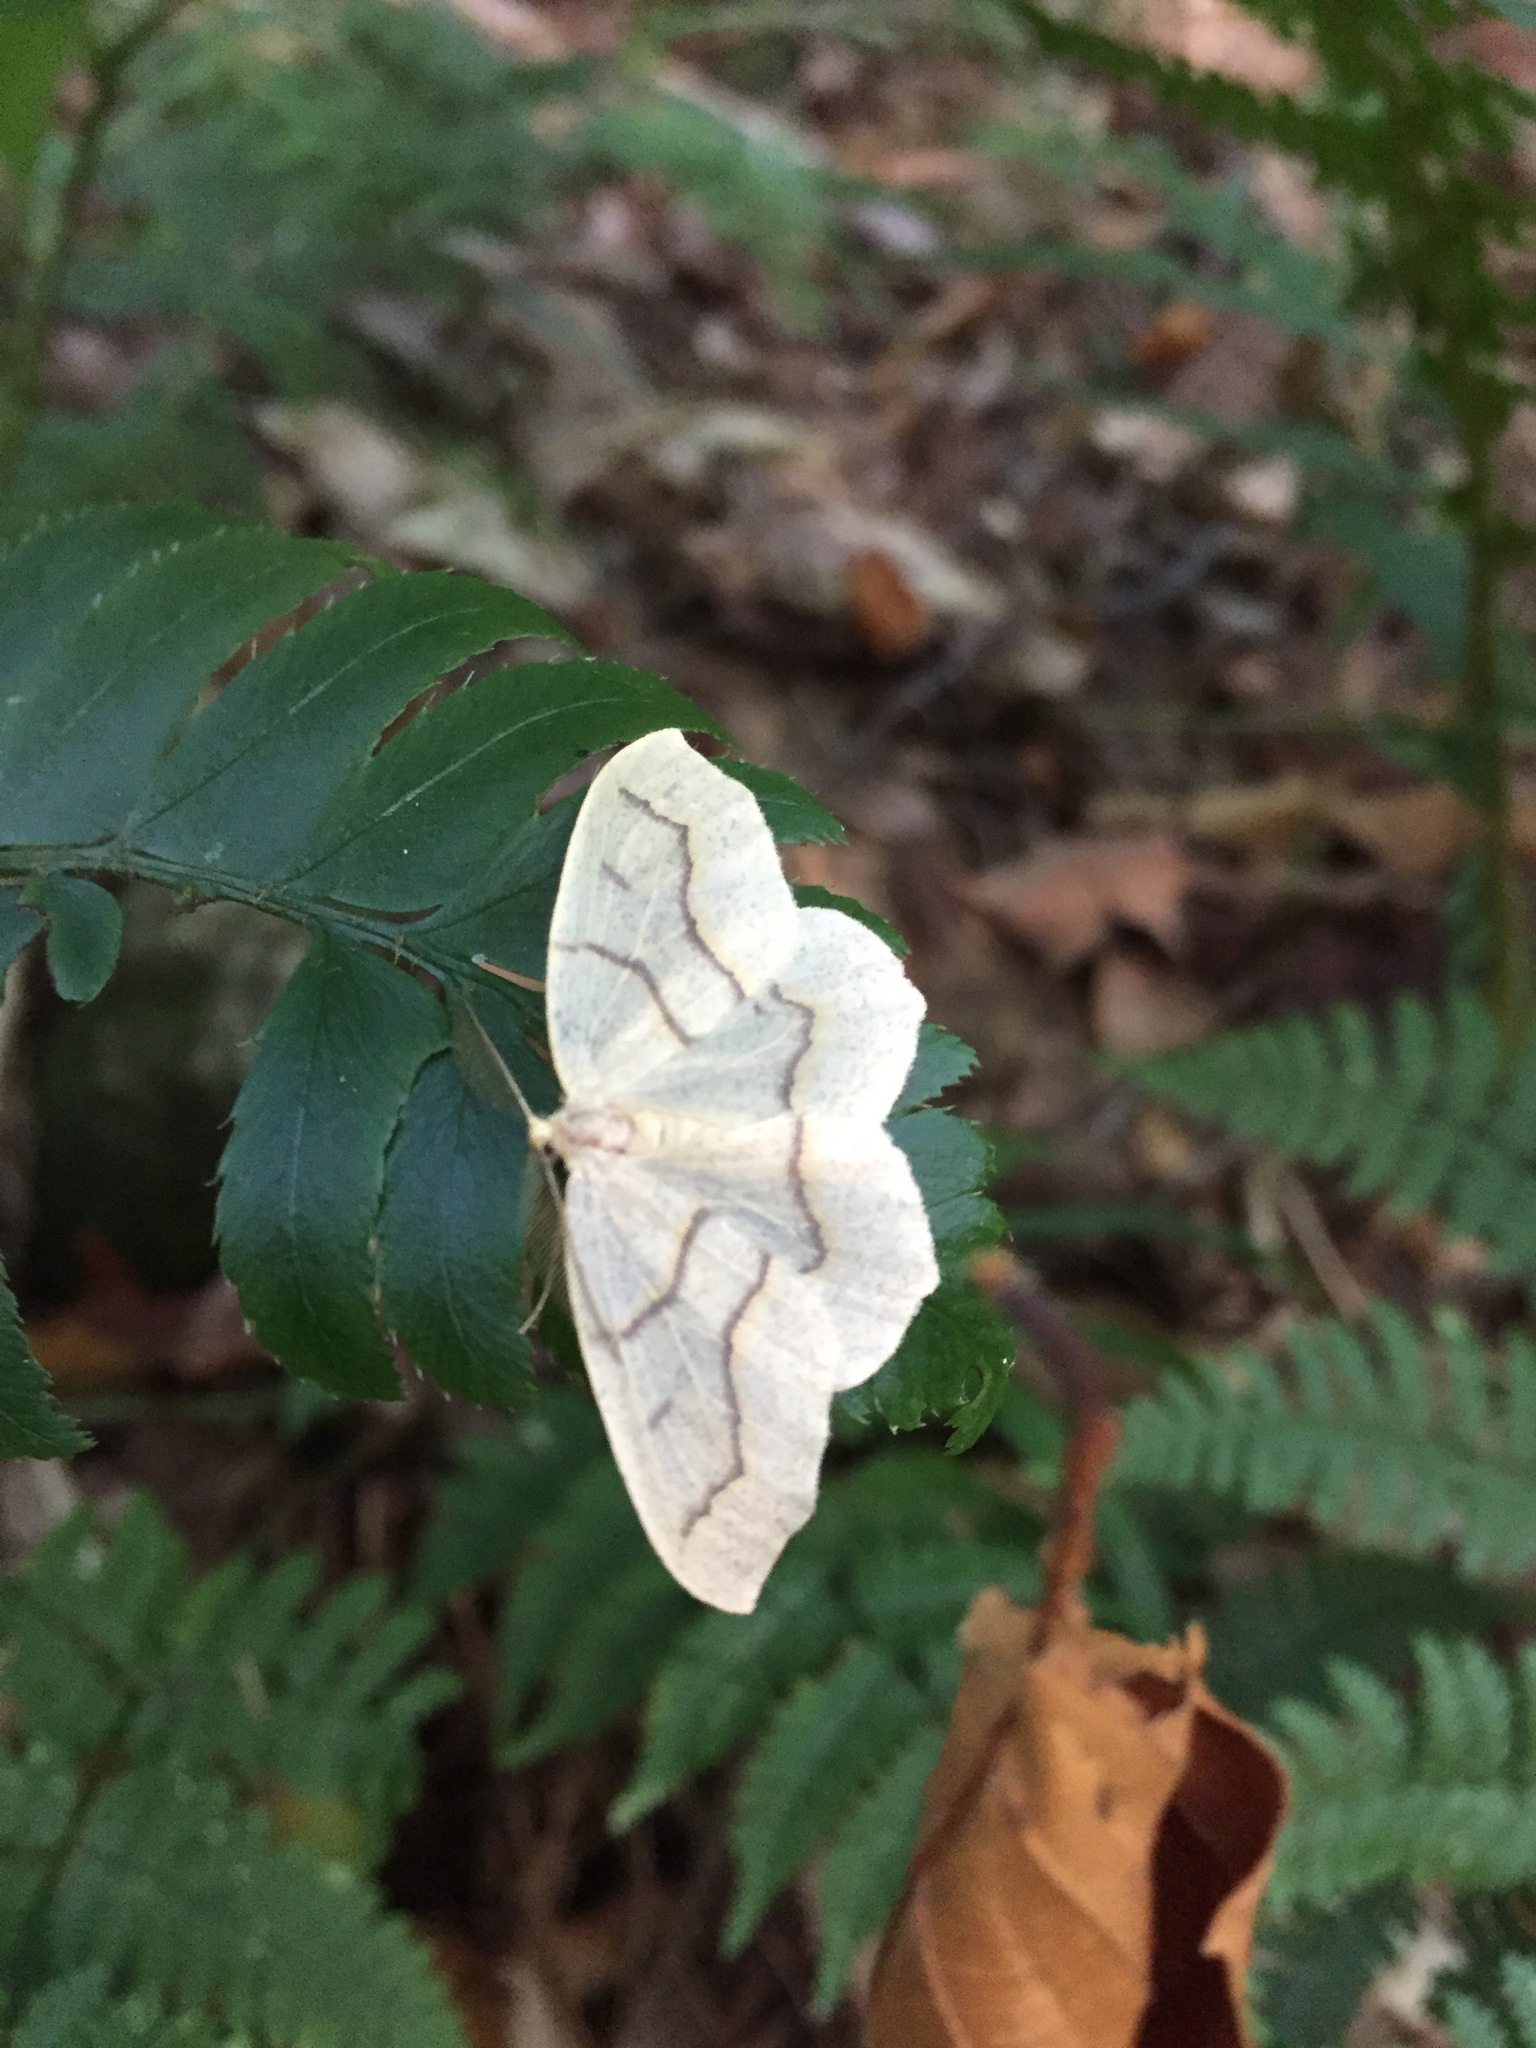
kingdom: Animalia
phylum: Arthropoda
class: Insecta
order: Lepidoptera
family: Geometridae
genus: Lambdina
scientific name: Lambdina fiscellaria
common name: Hemlock looper
